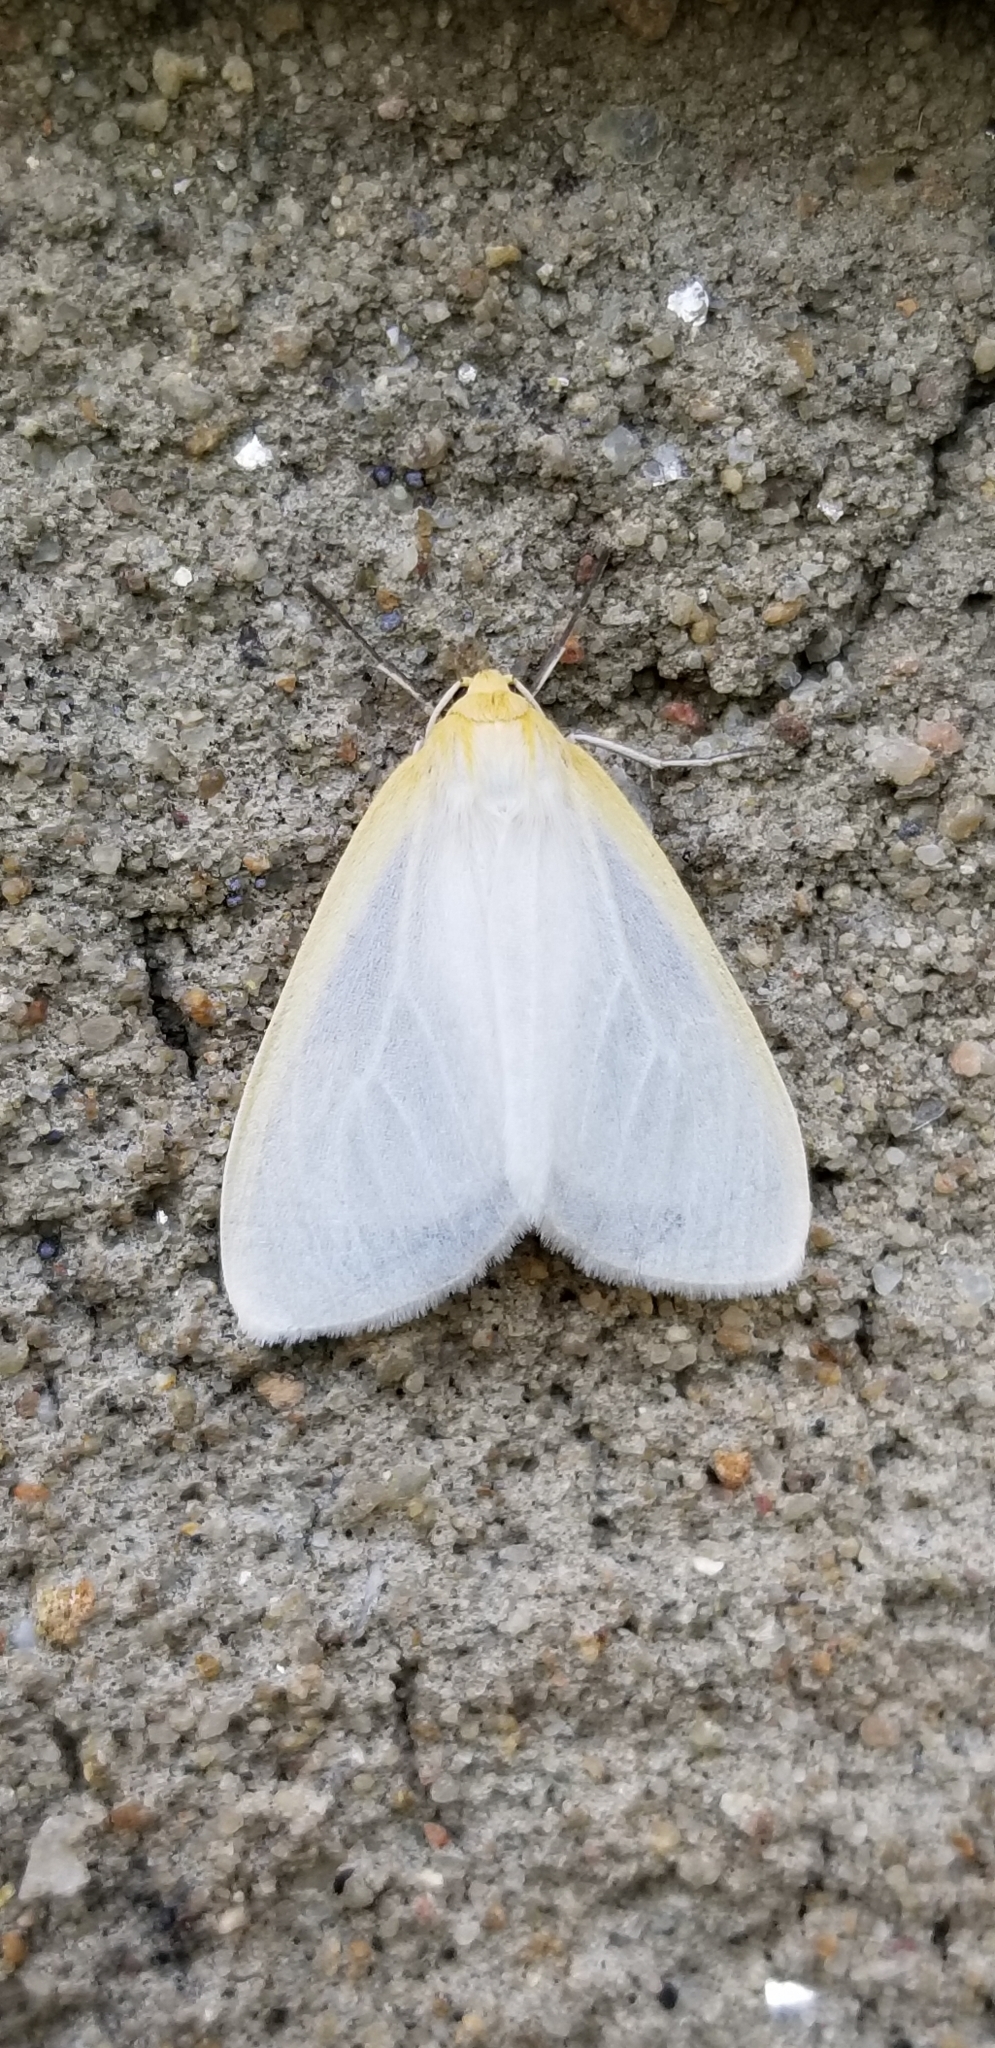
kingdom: Animalia
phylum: Arthropoda
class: Insecta
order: Lepidoptera
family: Erebidae
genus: Cycnia
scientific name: Cycnia tenera
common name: Delicate cycnia moth
